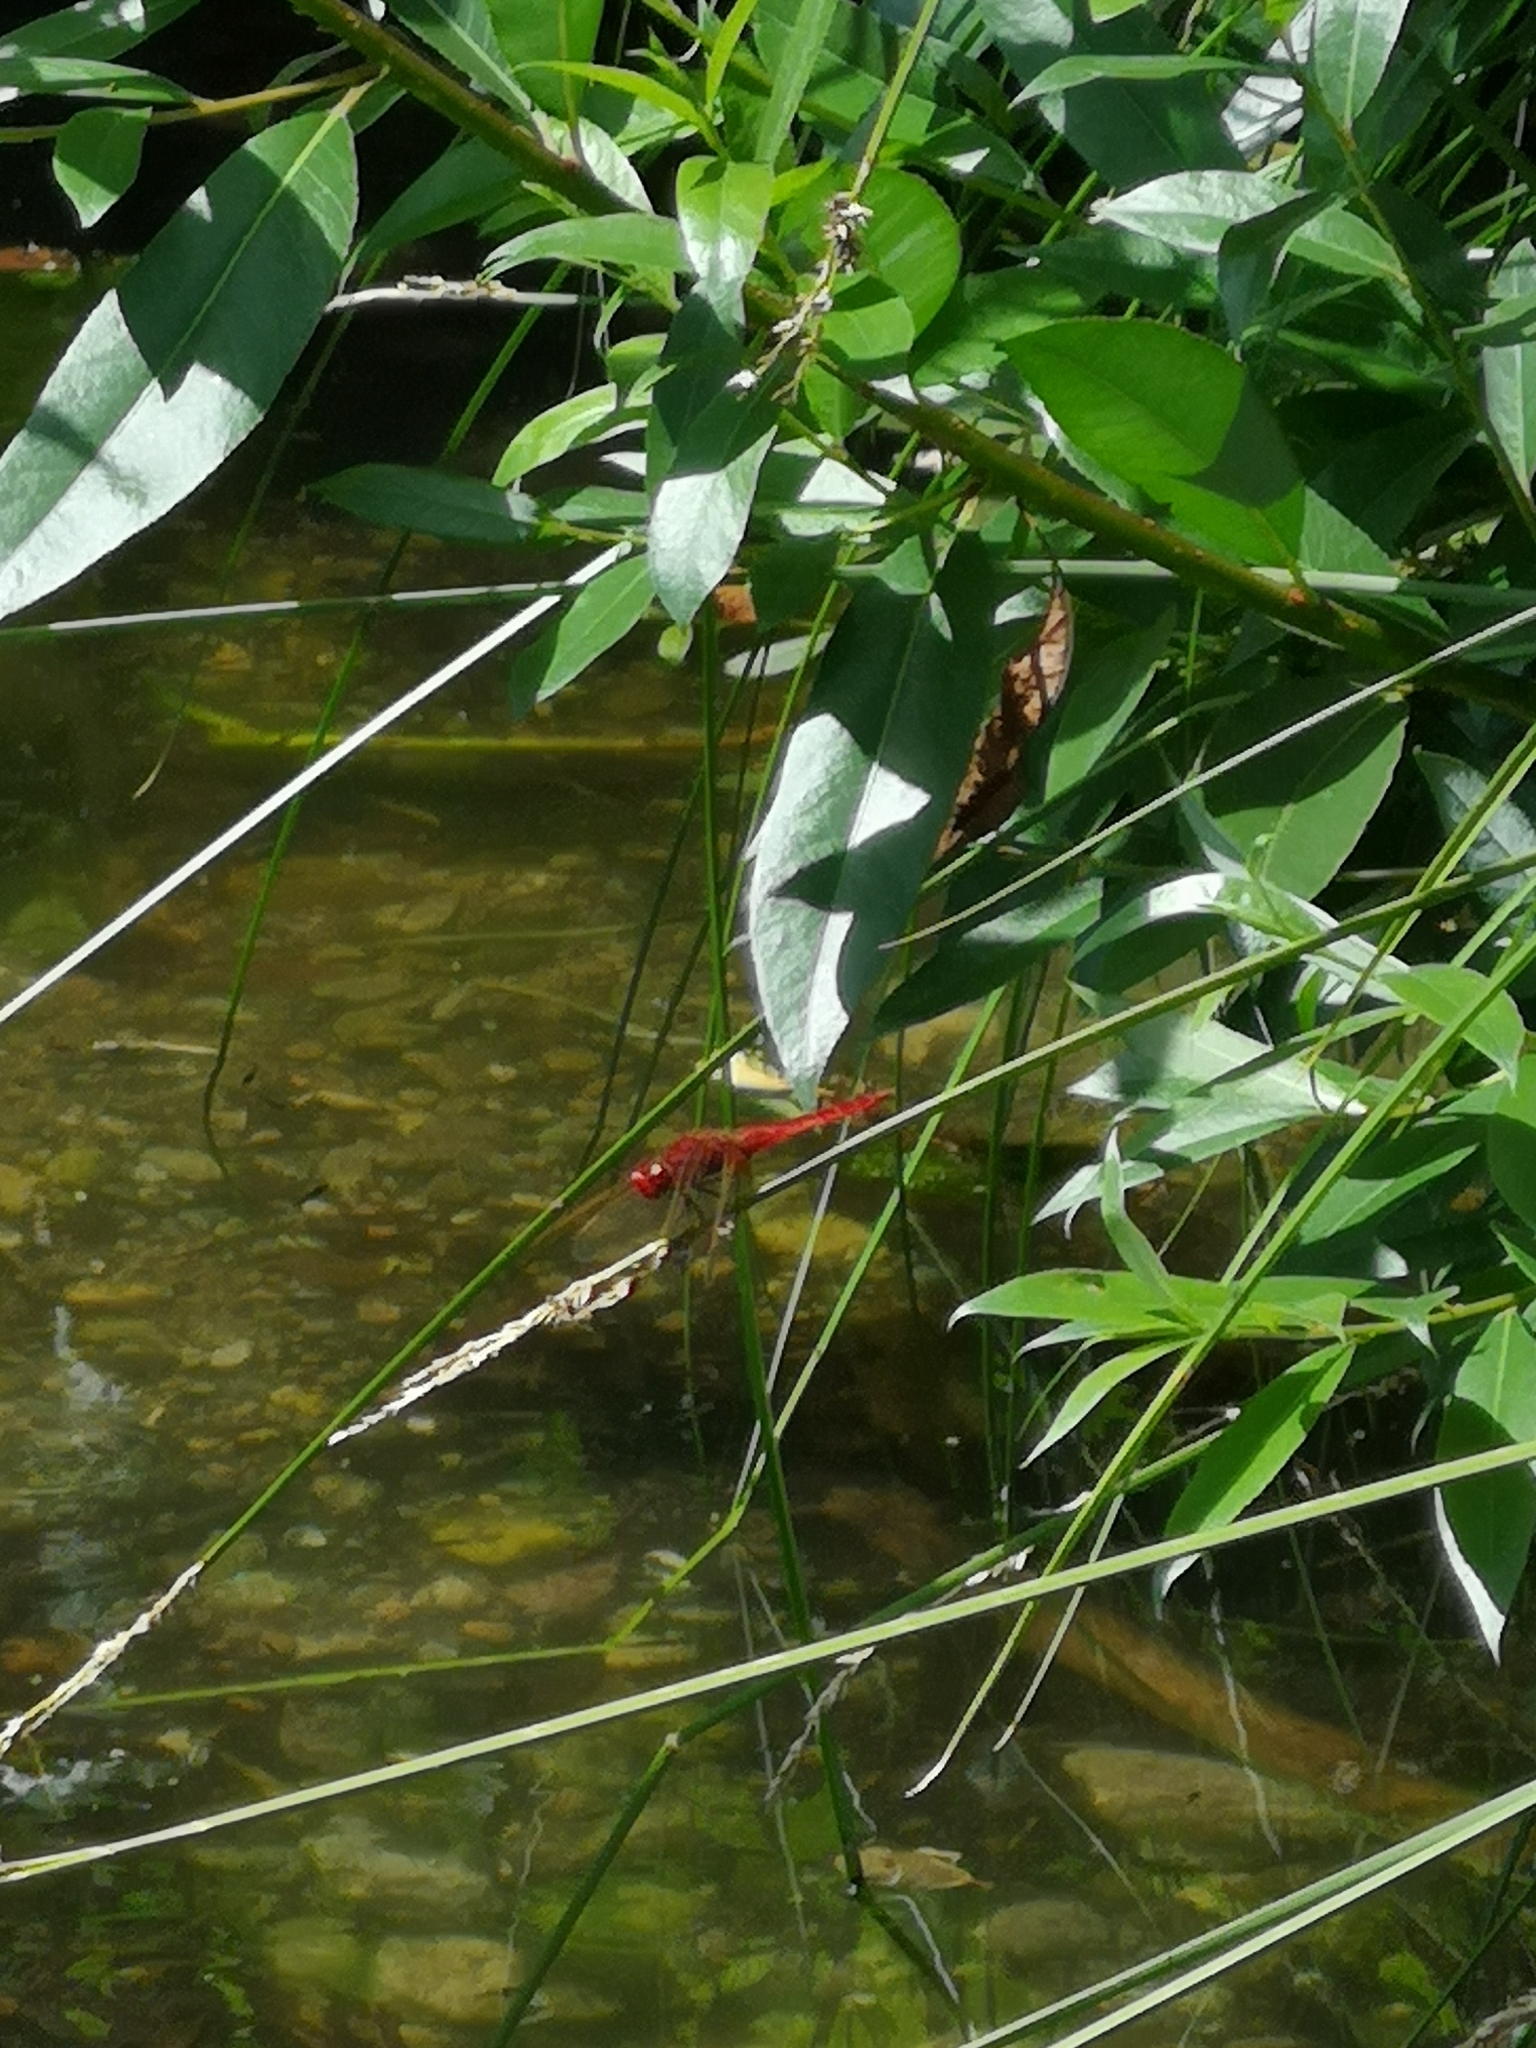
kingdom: Animalia
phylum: Arthropoda
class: Insecta
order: Odonata
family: Libellulidae
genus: Crocothemis
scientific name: Crocothemis erythraea
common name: Scarlet dragonfly
